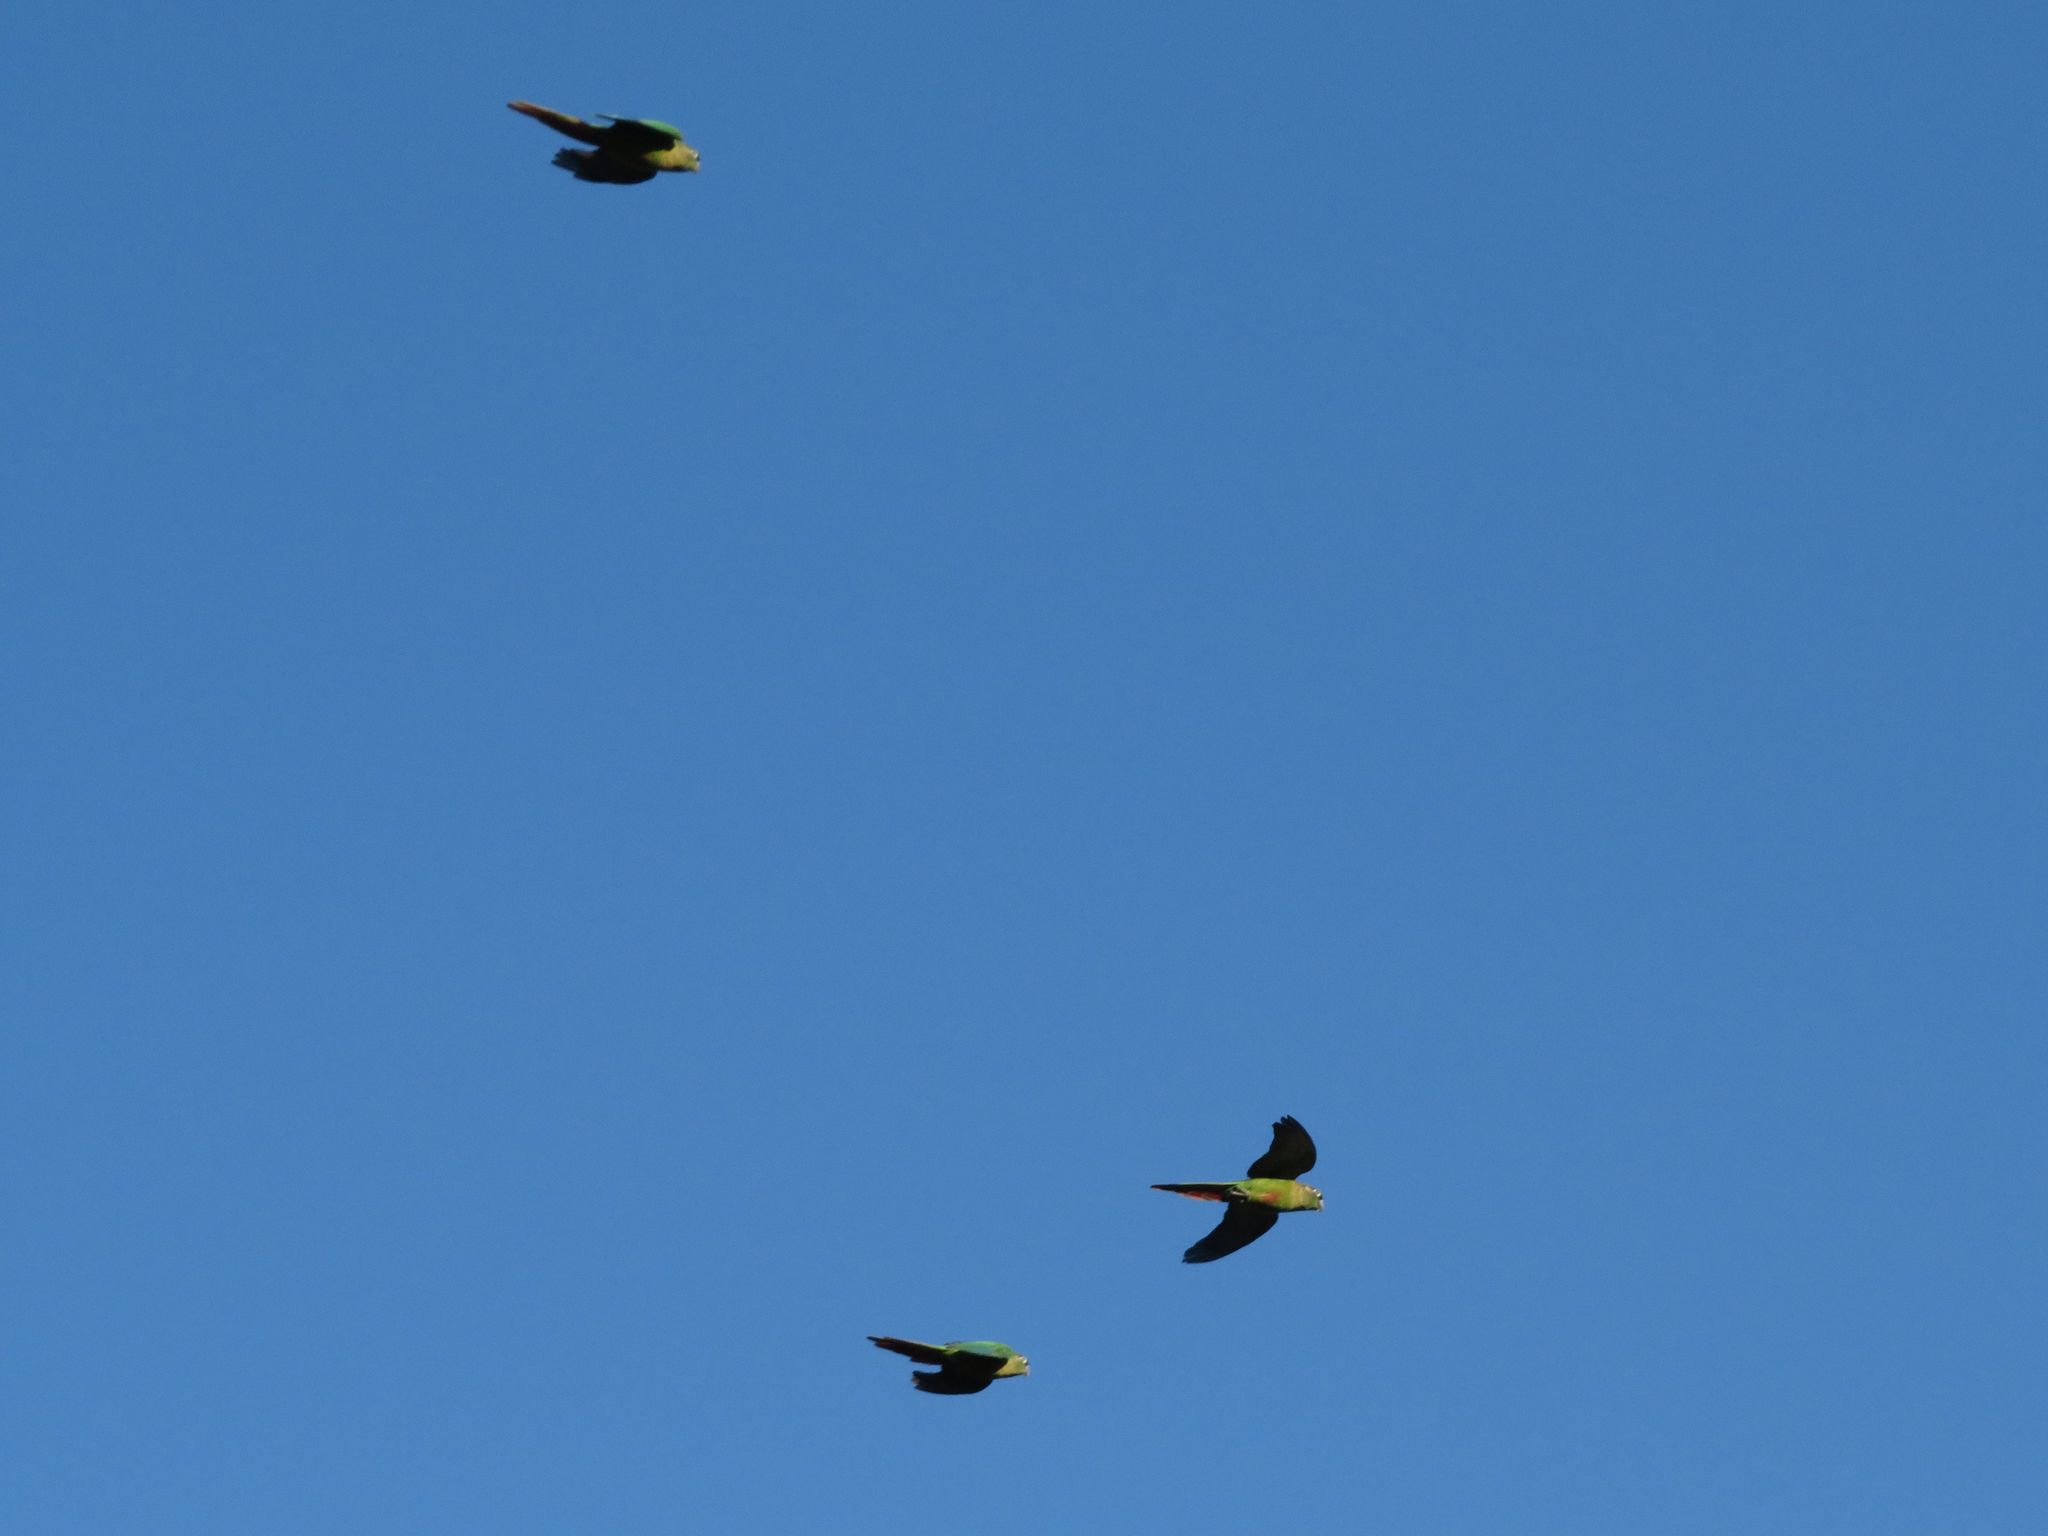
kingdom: Animalia
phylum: Chordata
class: Aves
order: Psittaciformes
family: Psittacidae
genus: Pyrrhura
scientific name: Pyrrhura frontalis
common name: Maroon-bellied parakeet
